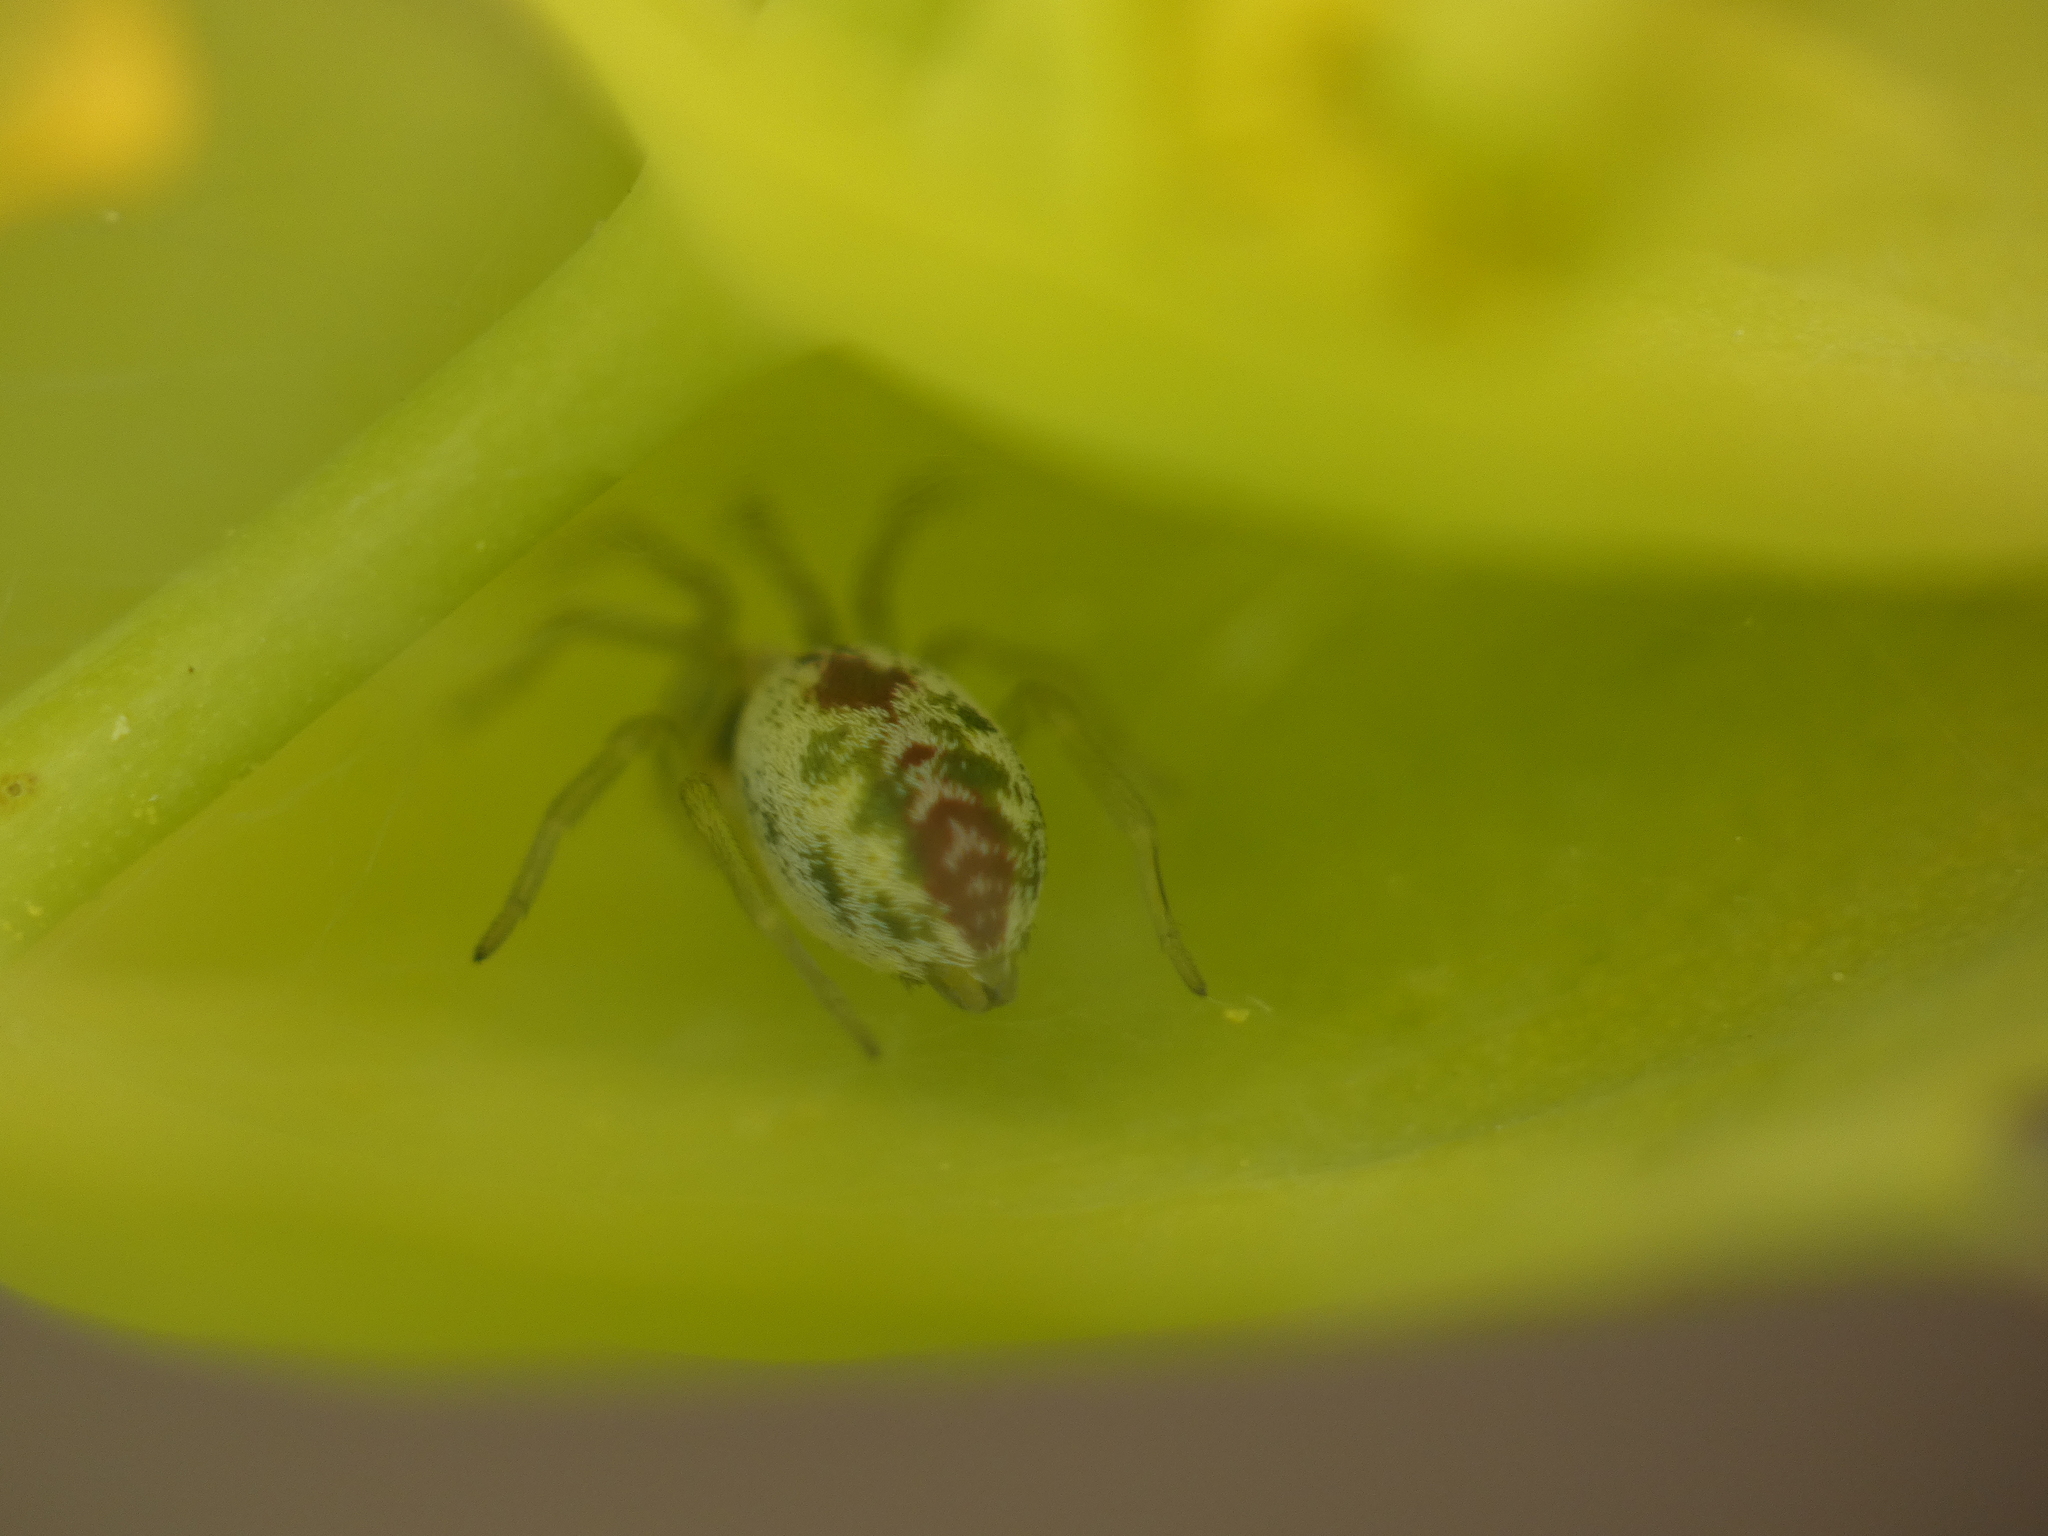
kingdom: Animalia
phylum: Arthropoda
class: Arachnida
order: Araneae
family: Dictynidae
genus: Nigma
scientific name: Nigma puella
